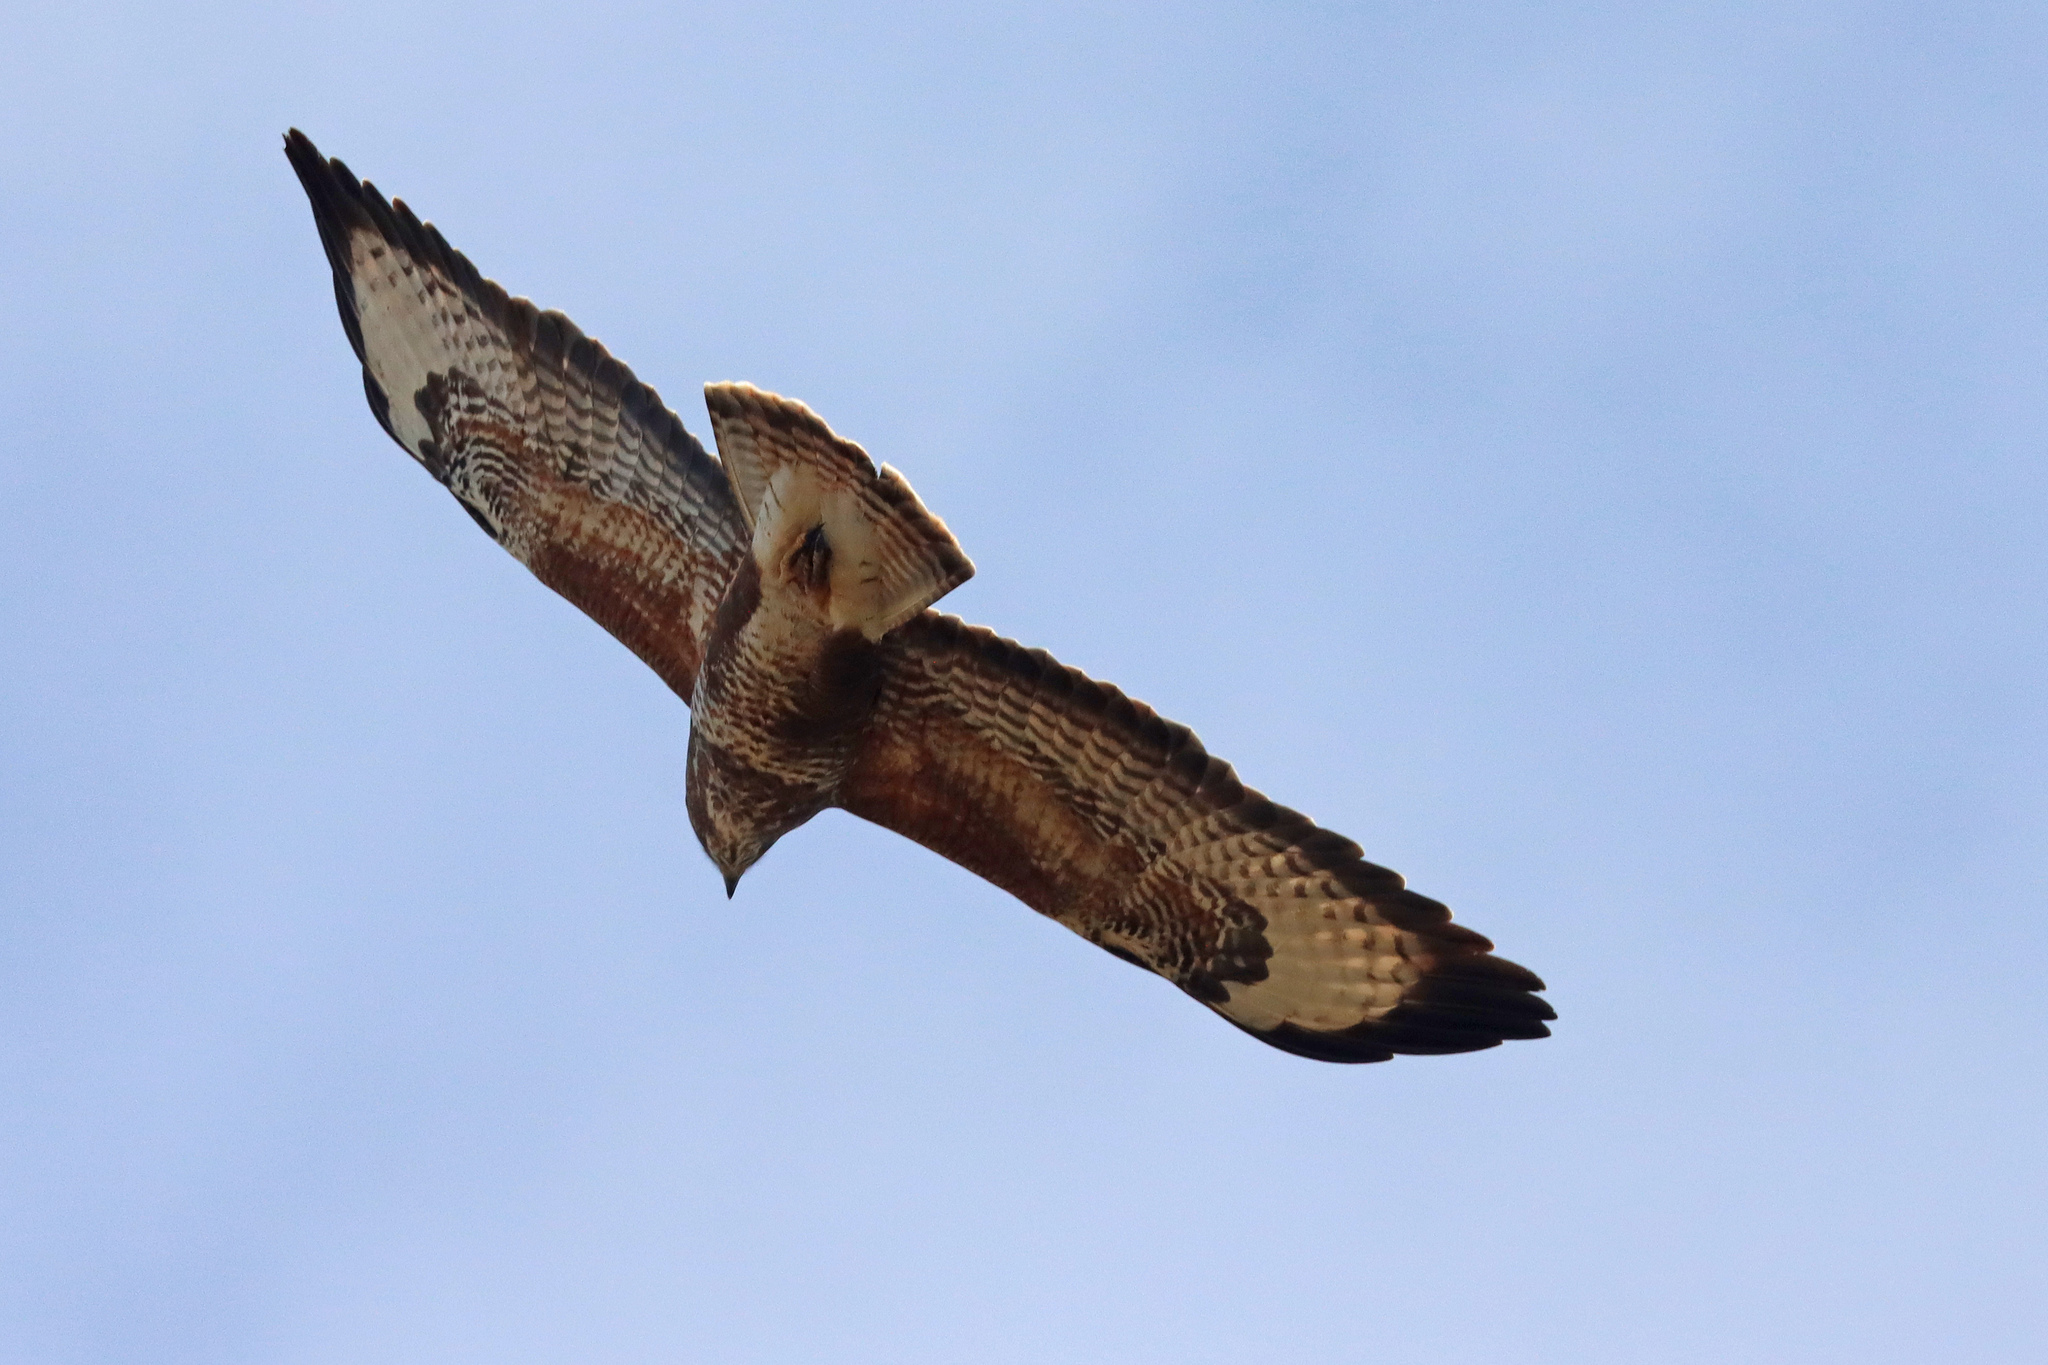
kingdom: Animalia
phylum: Chordata
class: Aves
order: Accipitriformes
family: Accipitridae
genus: Buteo
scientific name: Buteo buteo
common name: Common buzzard
